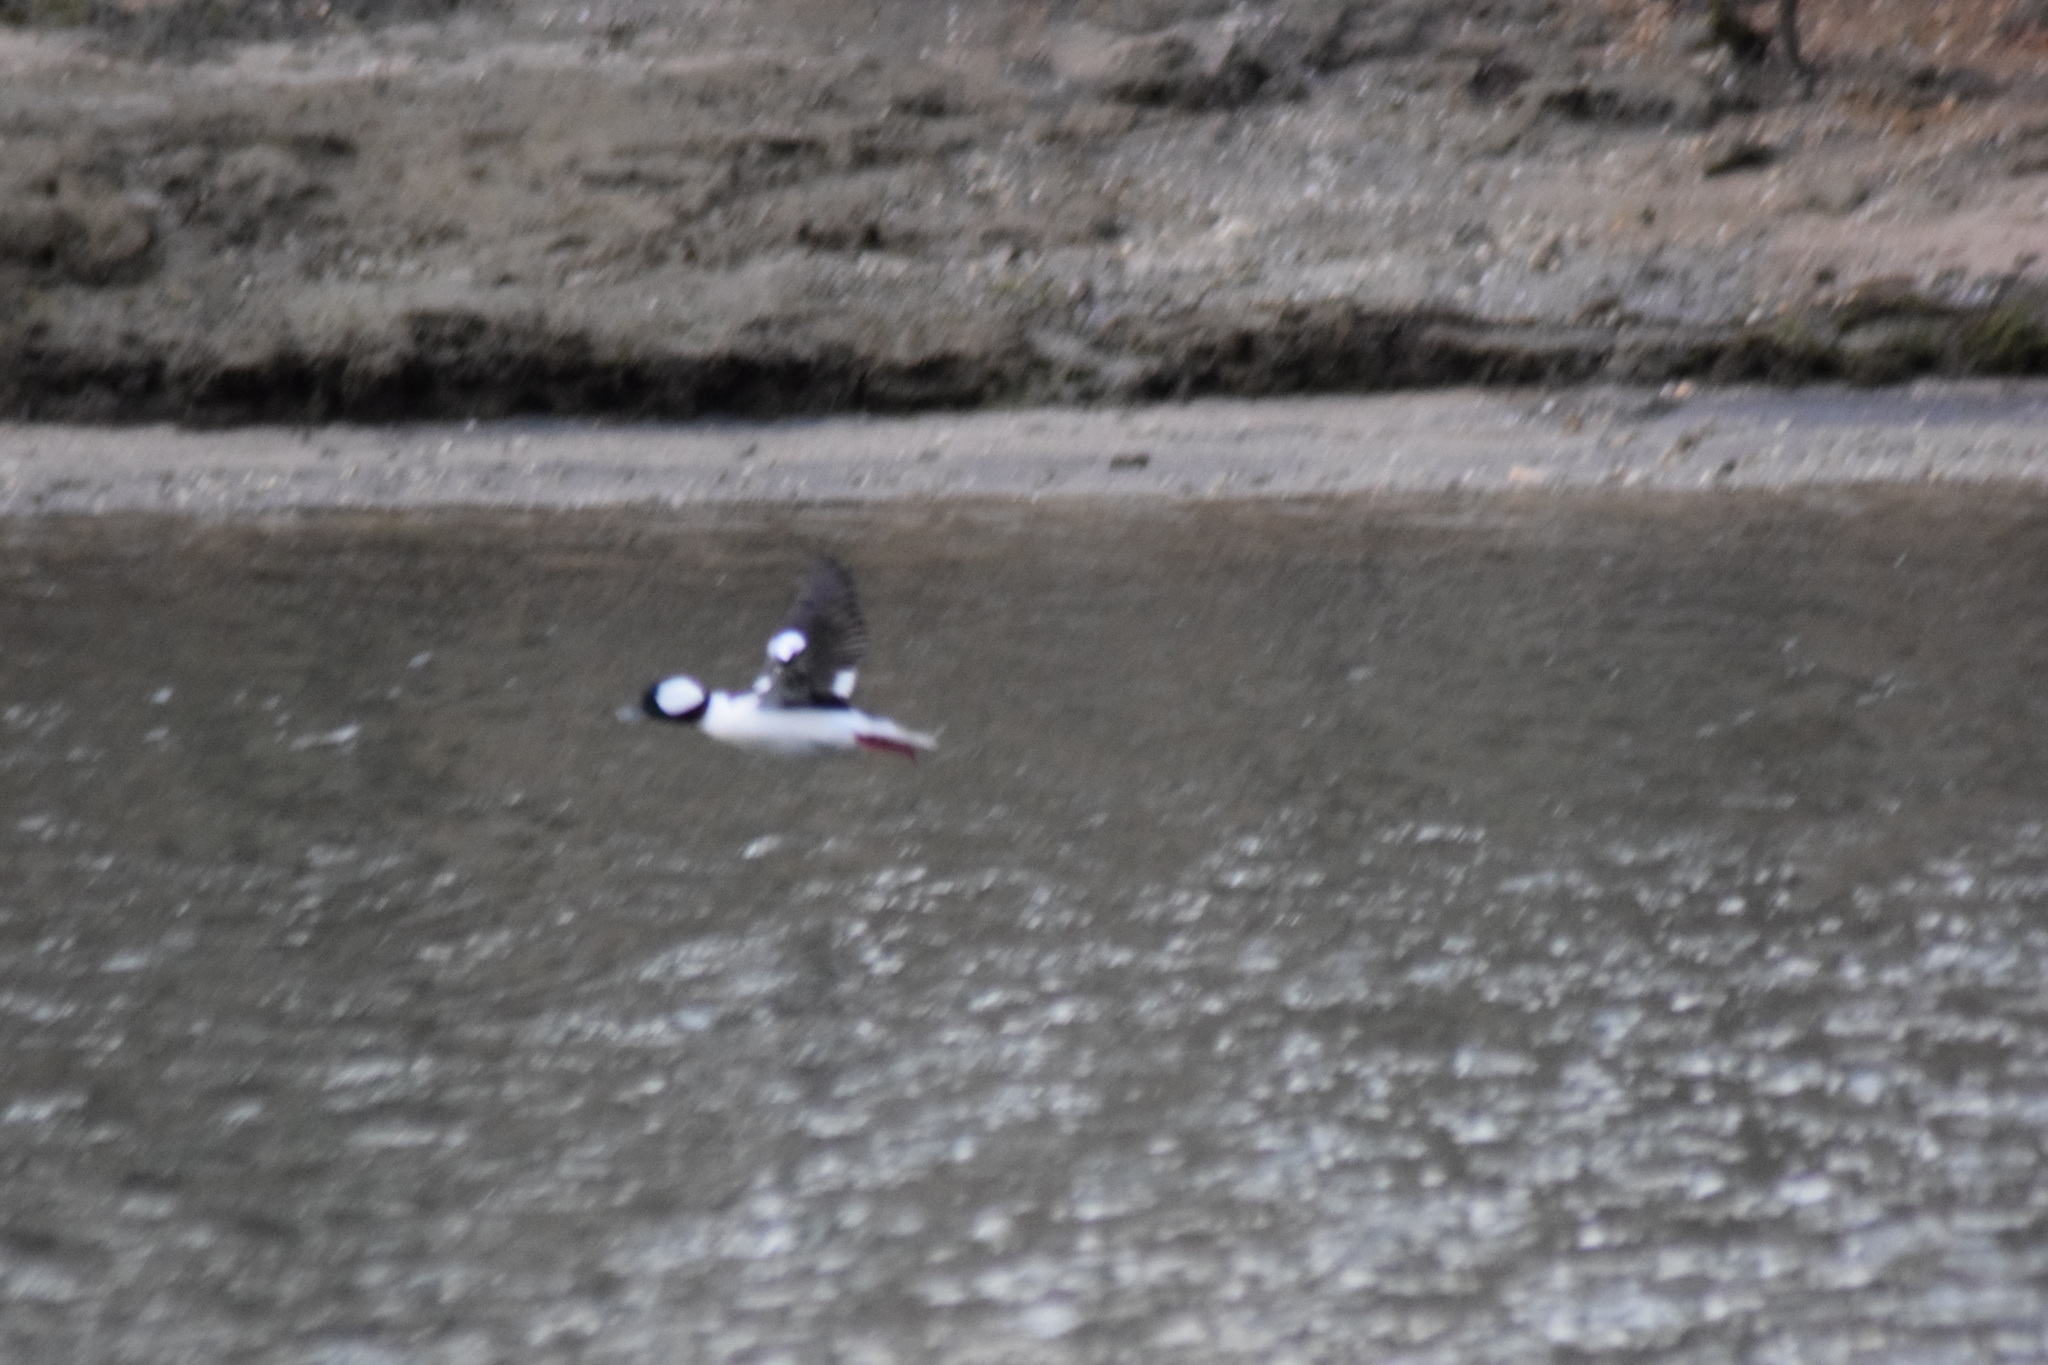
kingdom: Animalia
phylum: Chordata
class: Aves
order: Anseriformes
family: Anatidae
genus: Bucephala
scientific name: Bucephala albeola
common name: Bufflehead
